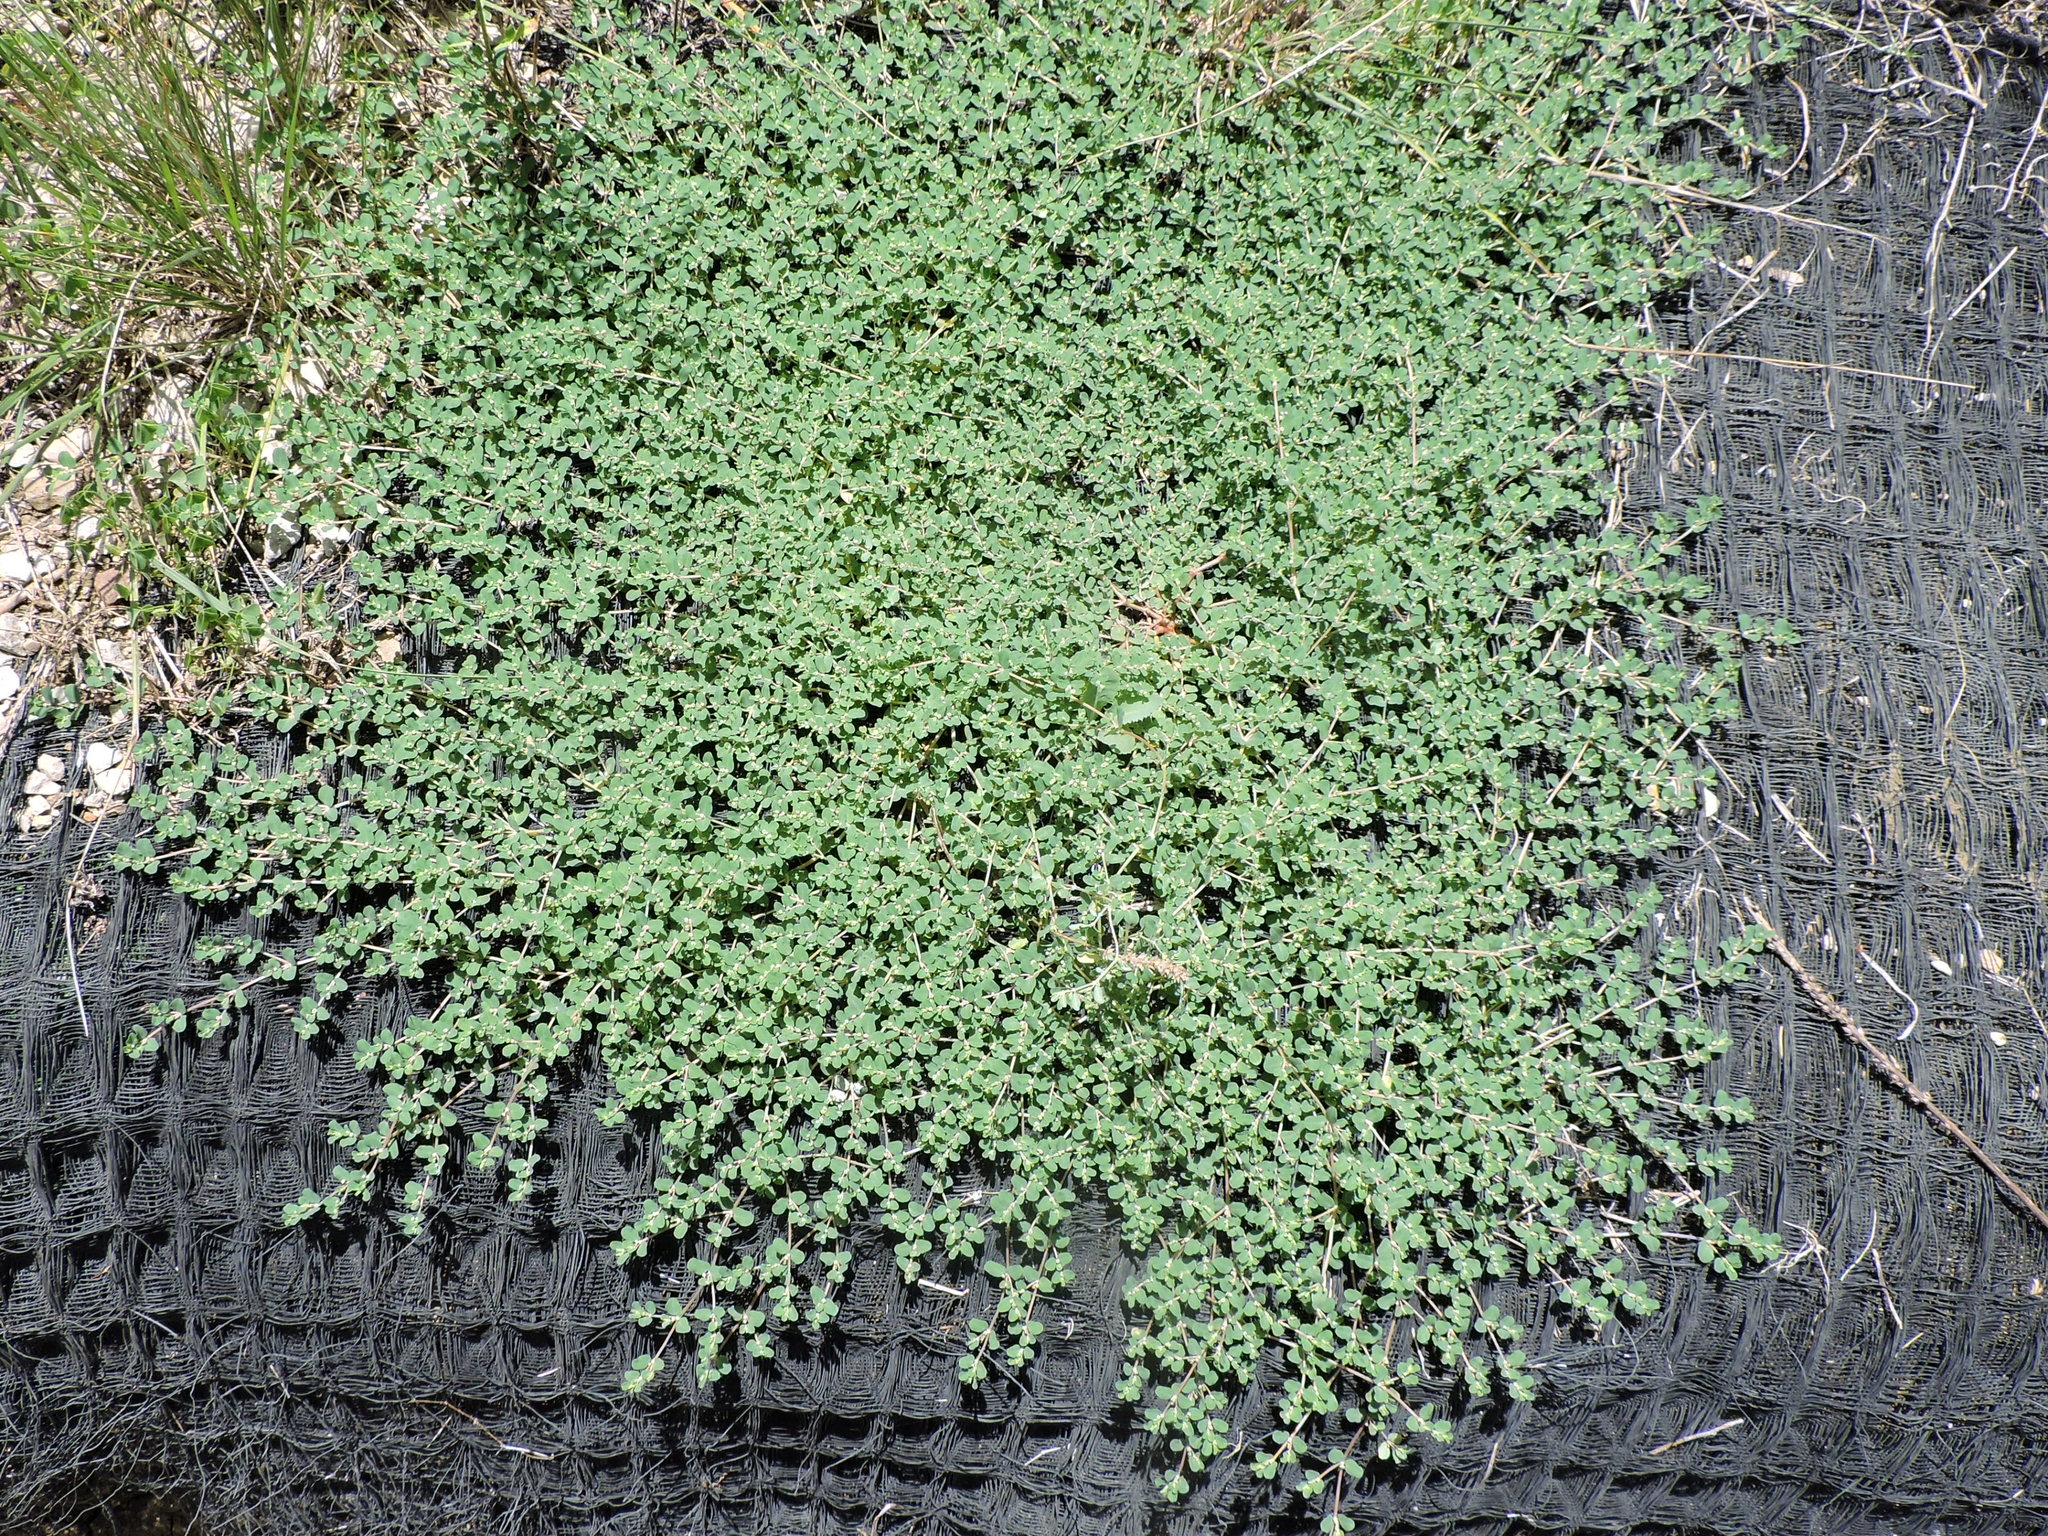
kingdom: Plantae
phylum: Tracheophyta
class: Magnoliopsida
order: Malpighiales
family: Euphorbiaceae
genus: Euphorbia
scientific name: Euphorbia serpens
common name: Matted sandmat
